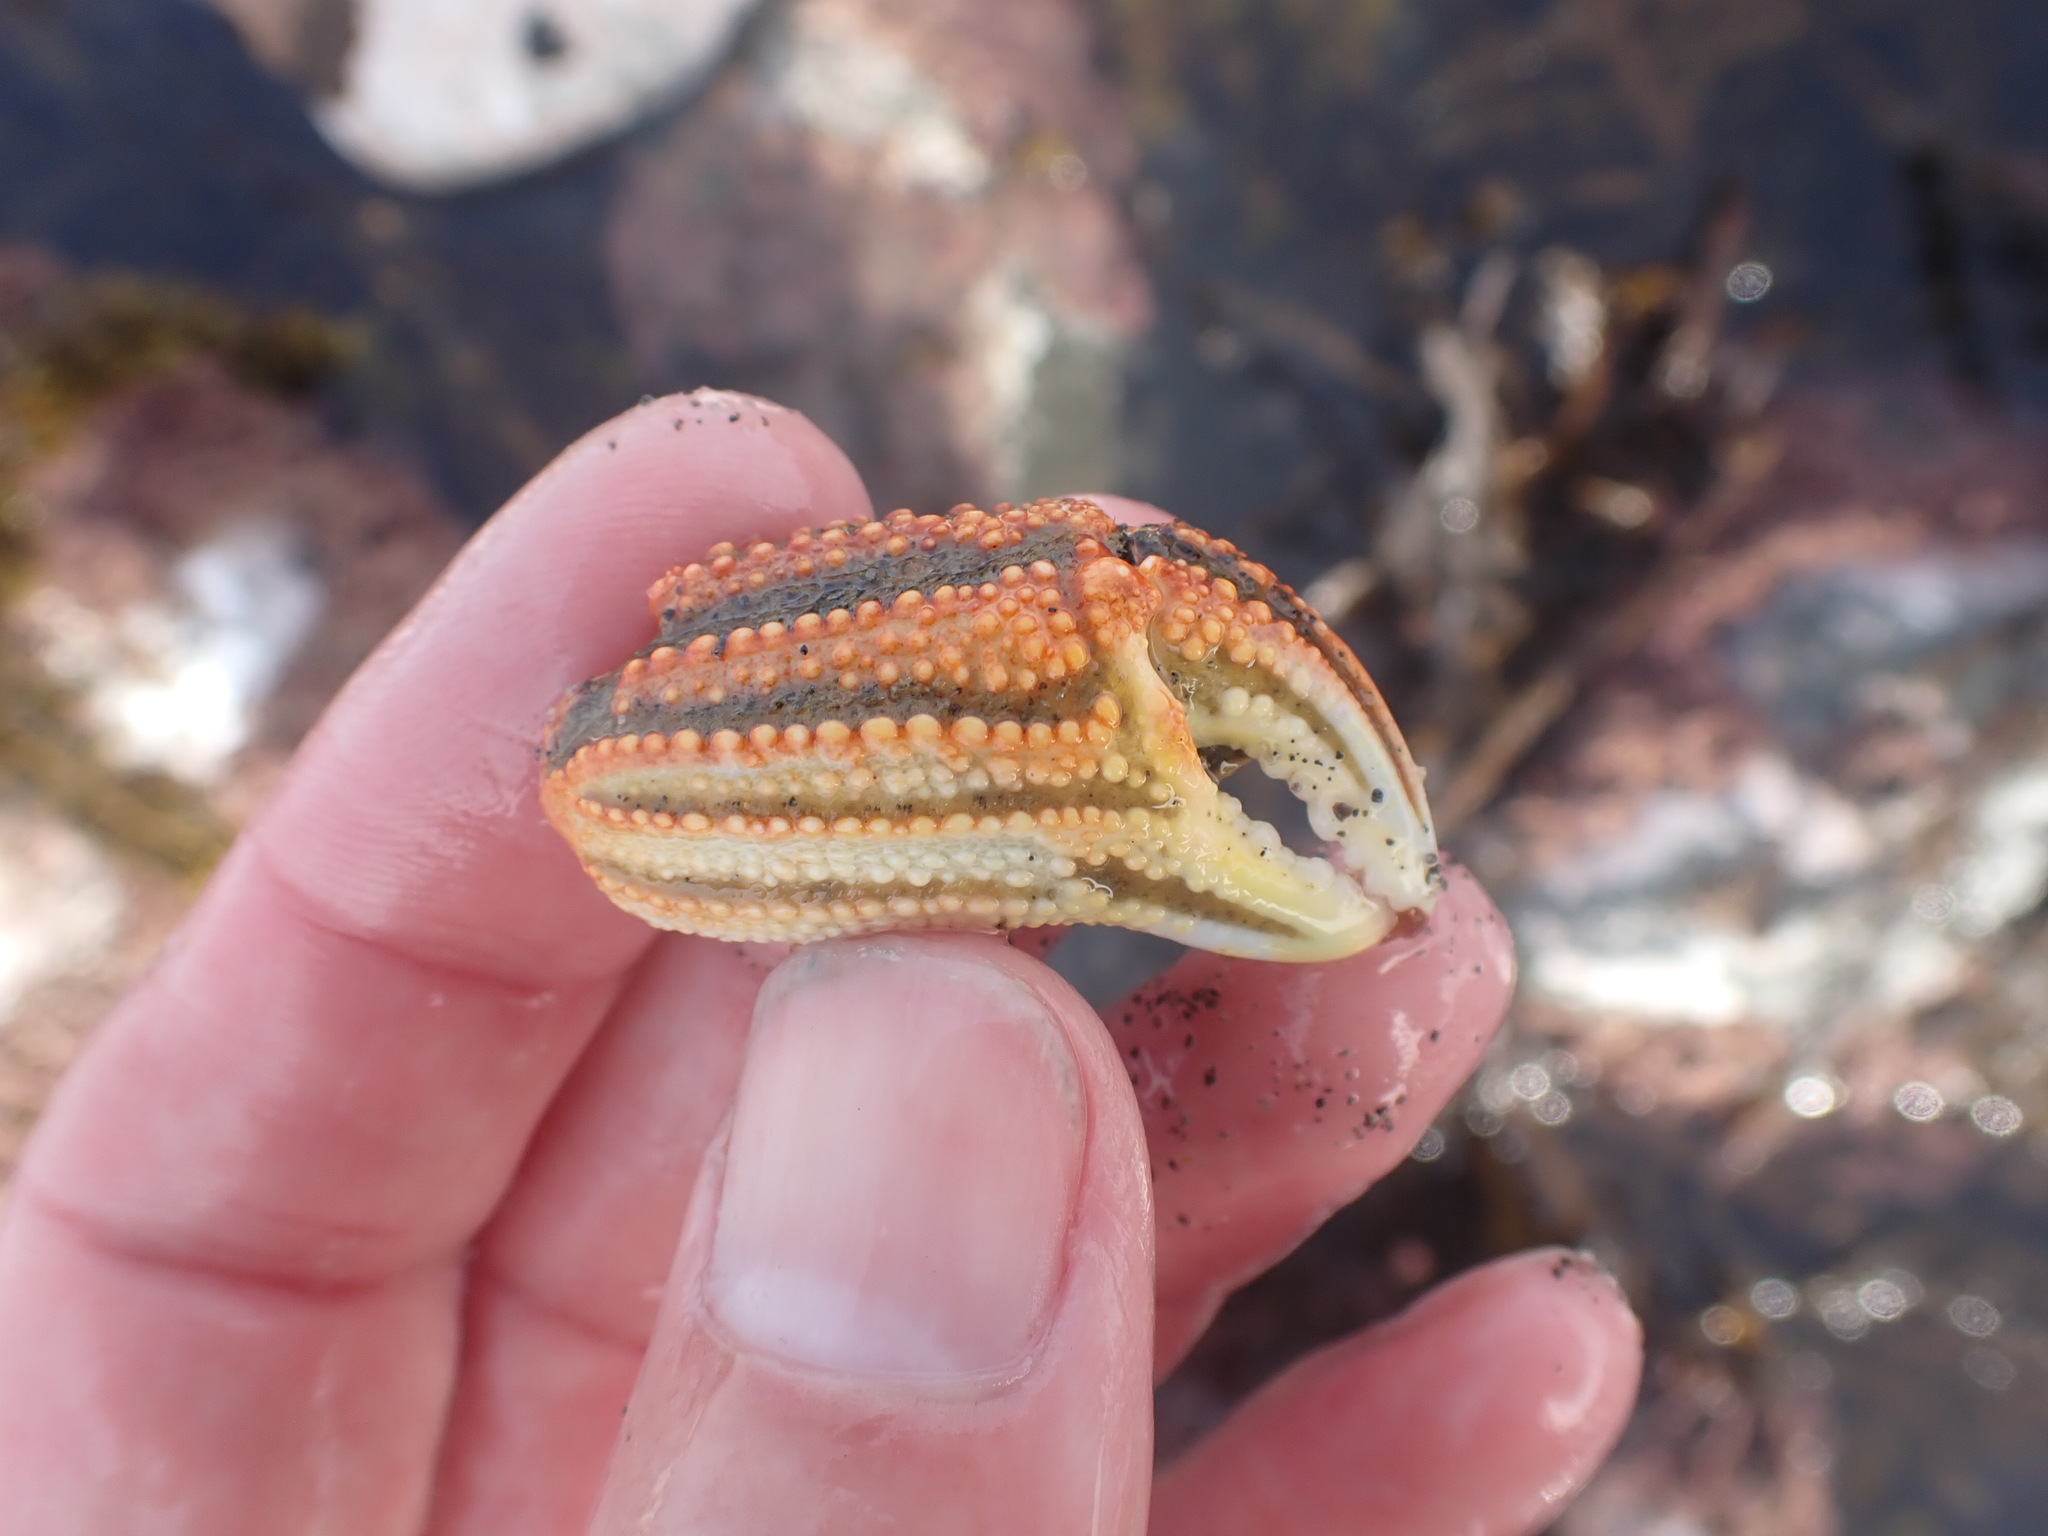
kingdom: Animalia
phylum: Arthropoda
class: Malacostraca
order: Decapoda
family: Plagusiidae
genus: Guinusia
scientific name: Guinusia chabrus
